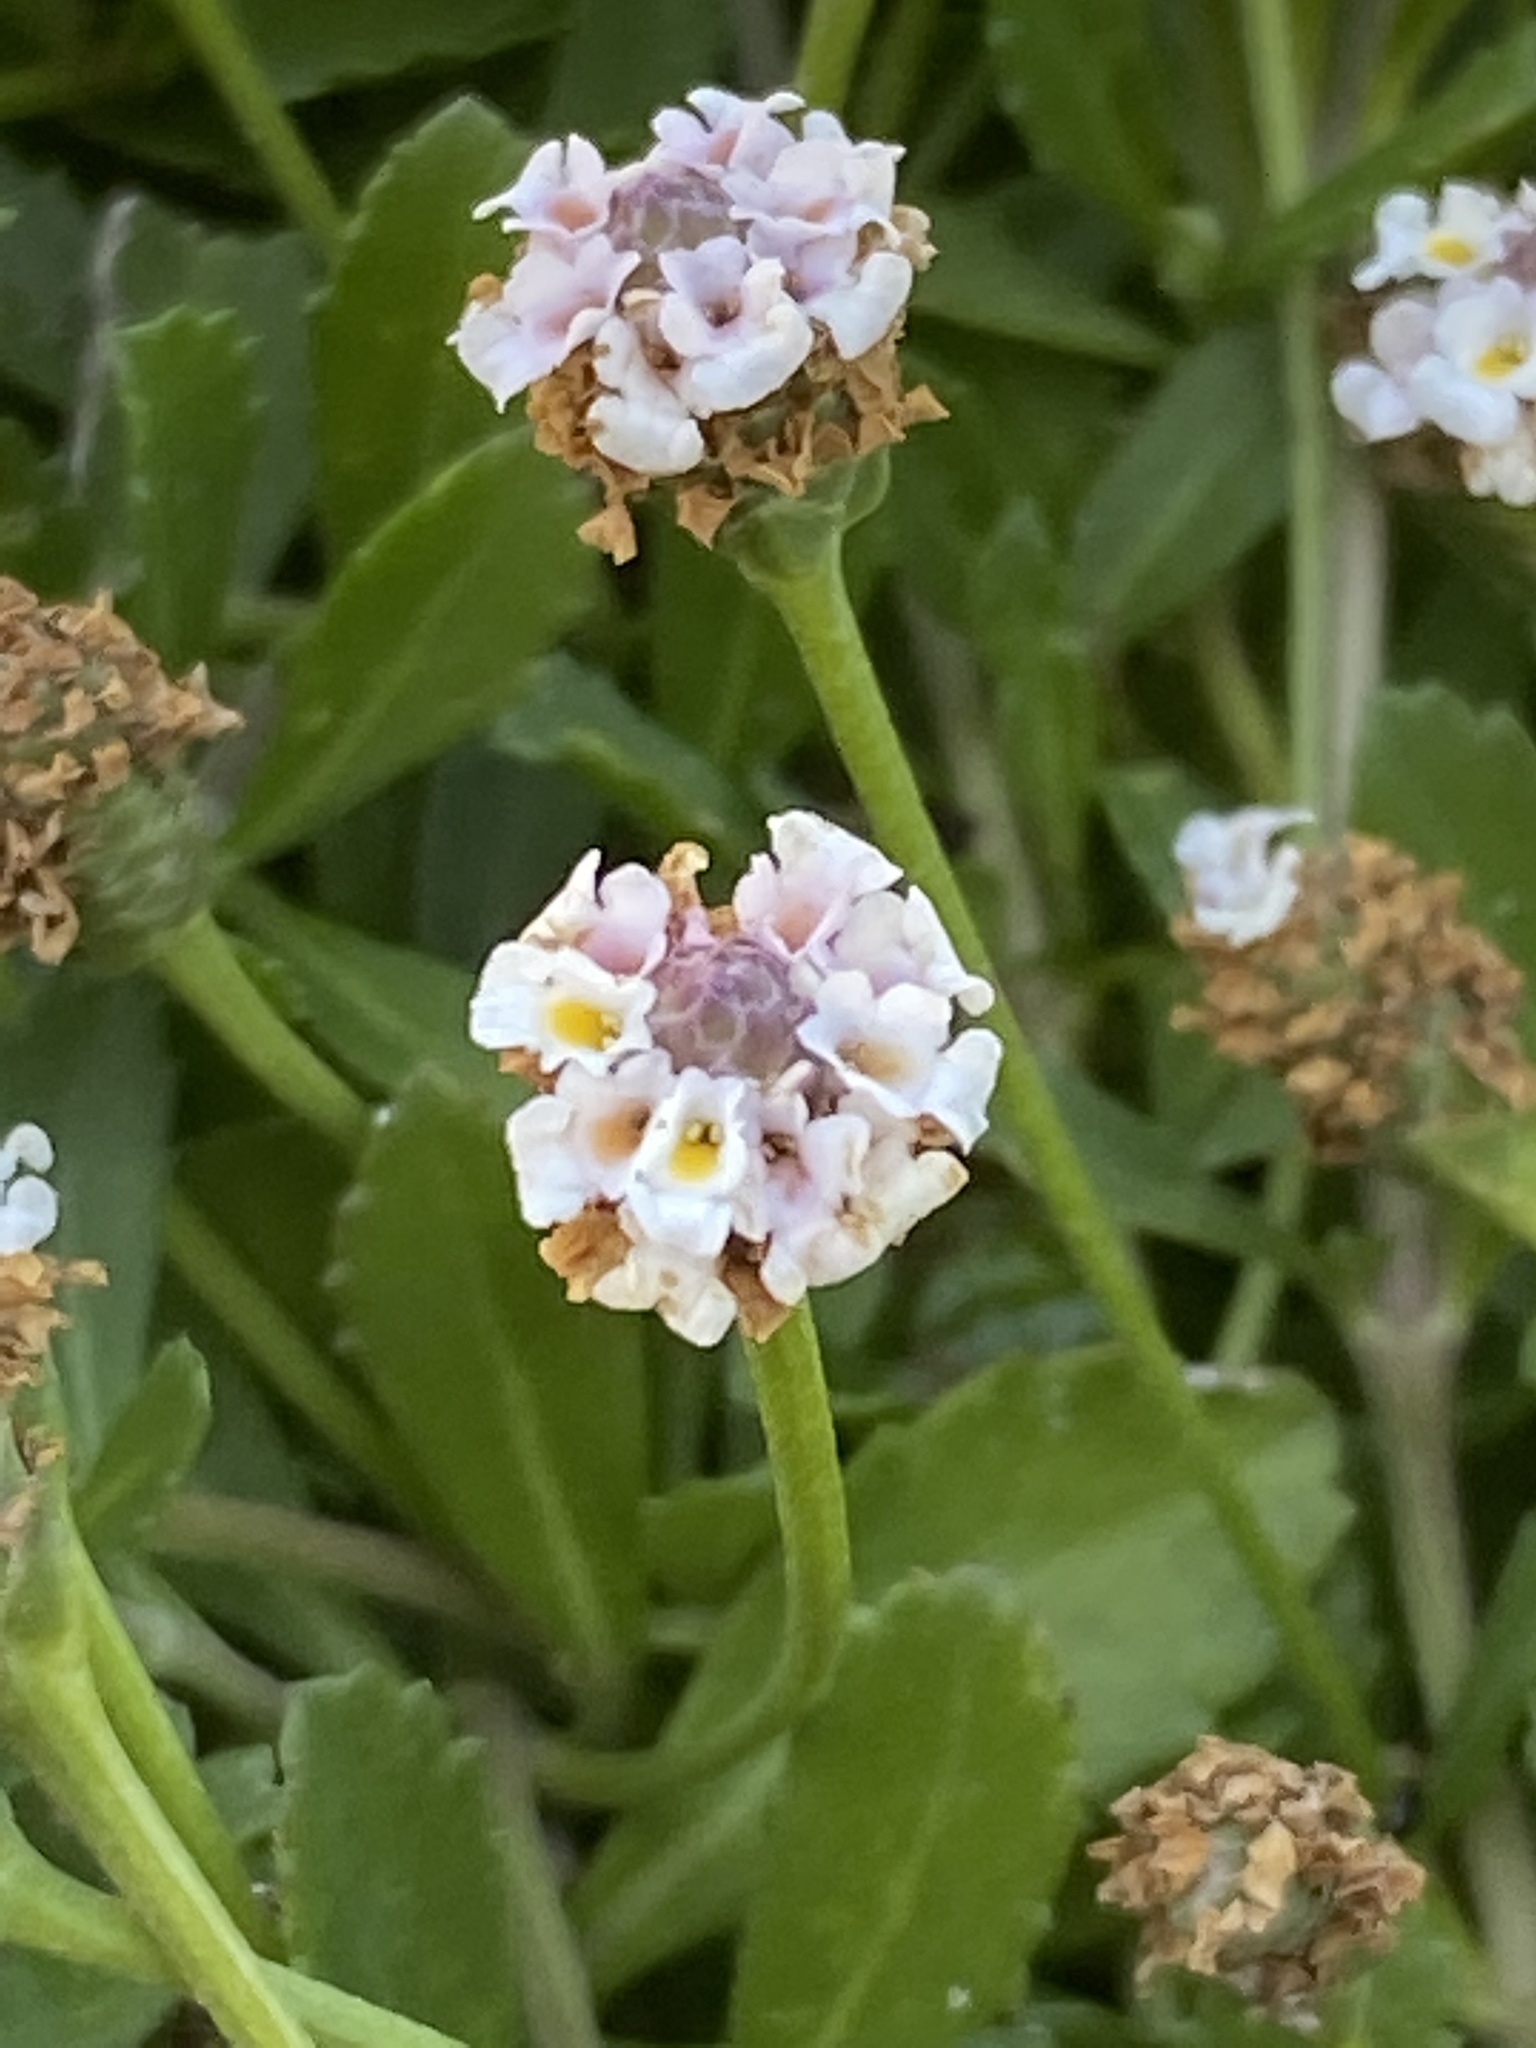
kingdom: Plantae
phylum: Tracheophyta
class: Magnoliopsida
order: Lamiales
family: Verbenaceae
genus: Phyla
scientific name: Phyla nodiflora
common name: Frogfruit
